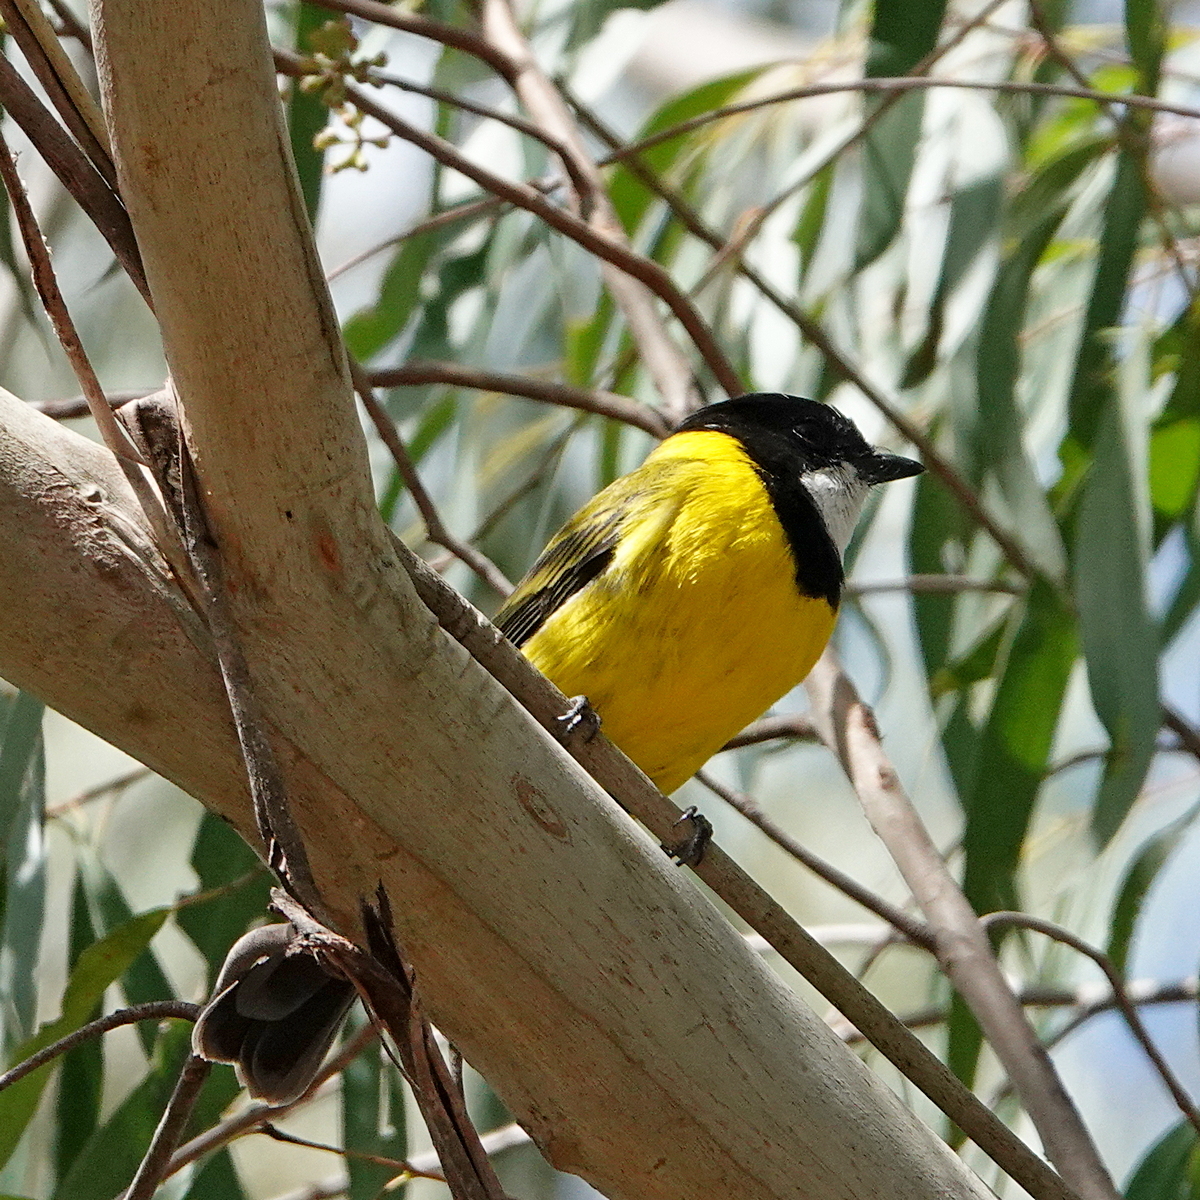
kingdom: Animalia
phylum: Chordata
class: Aves
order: Passeriformes
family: Pachycephalidae
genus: Pachycephala
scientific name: Pachycephala pectoralis
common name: Australian golden whistler
